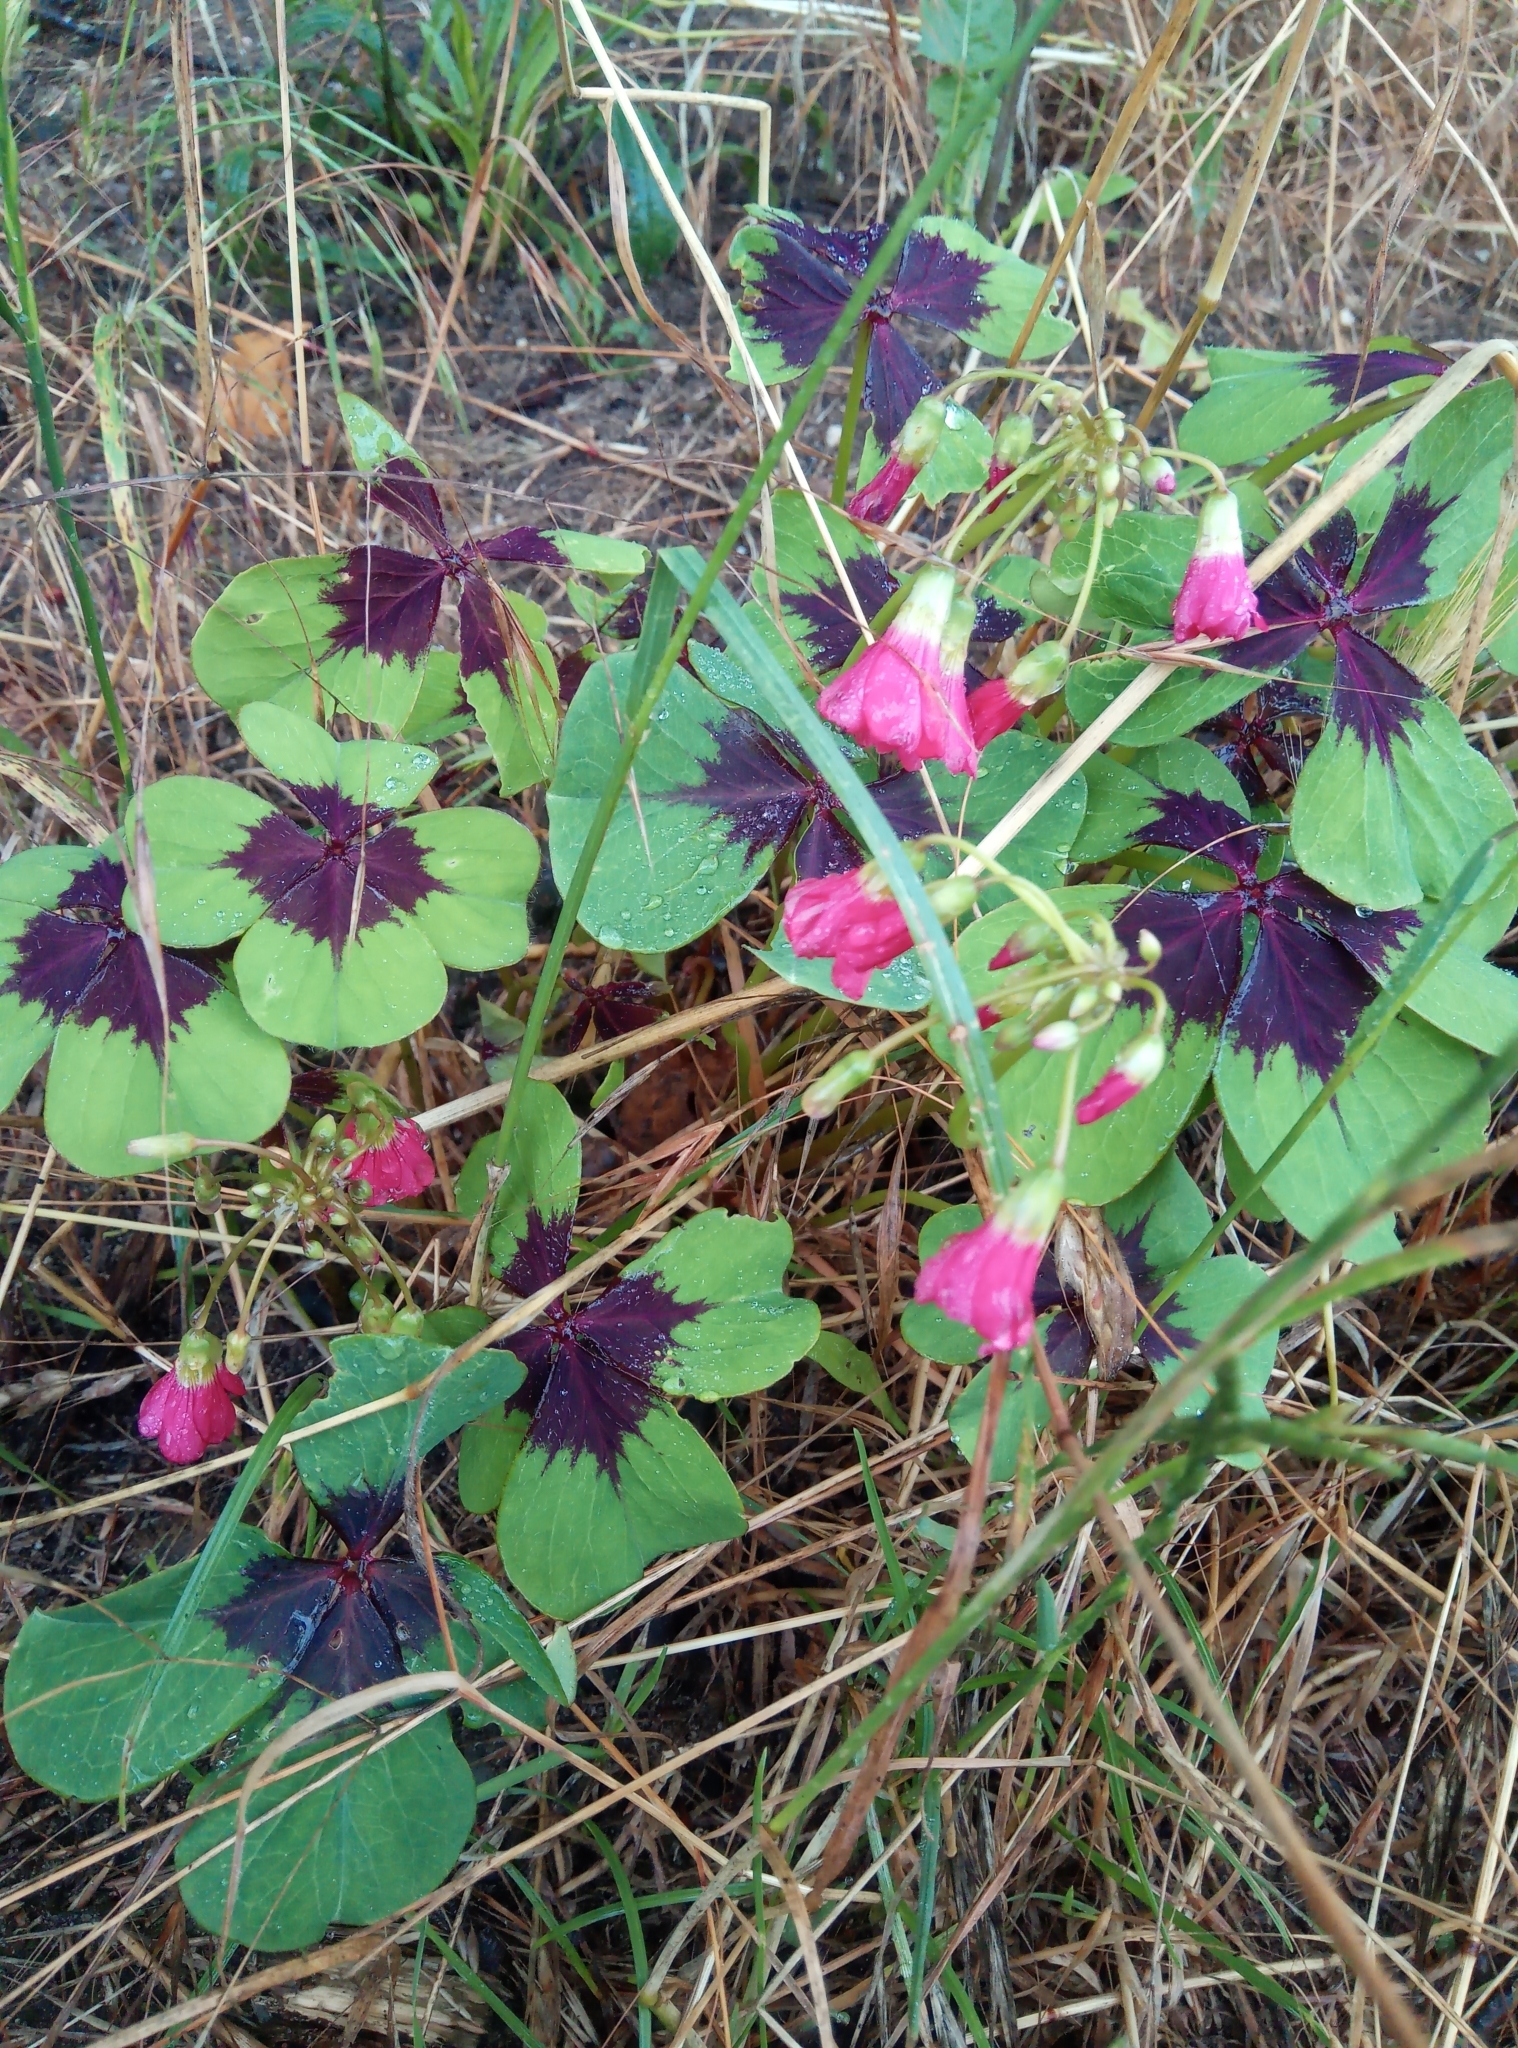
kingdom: Plantae
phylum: Tracheophyta
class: Magnoliopsida
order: Oxalidales
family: Oxalidaceae
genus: Oxalis
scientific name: Oxalis tetraphylla
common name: Four-leaved pink-sorrel
